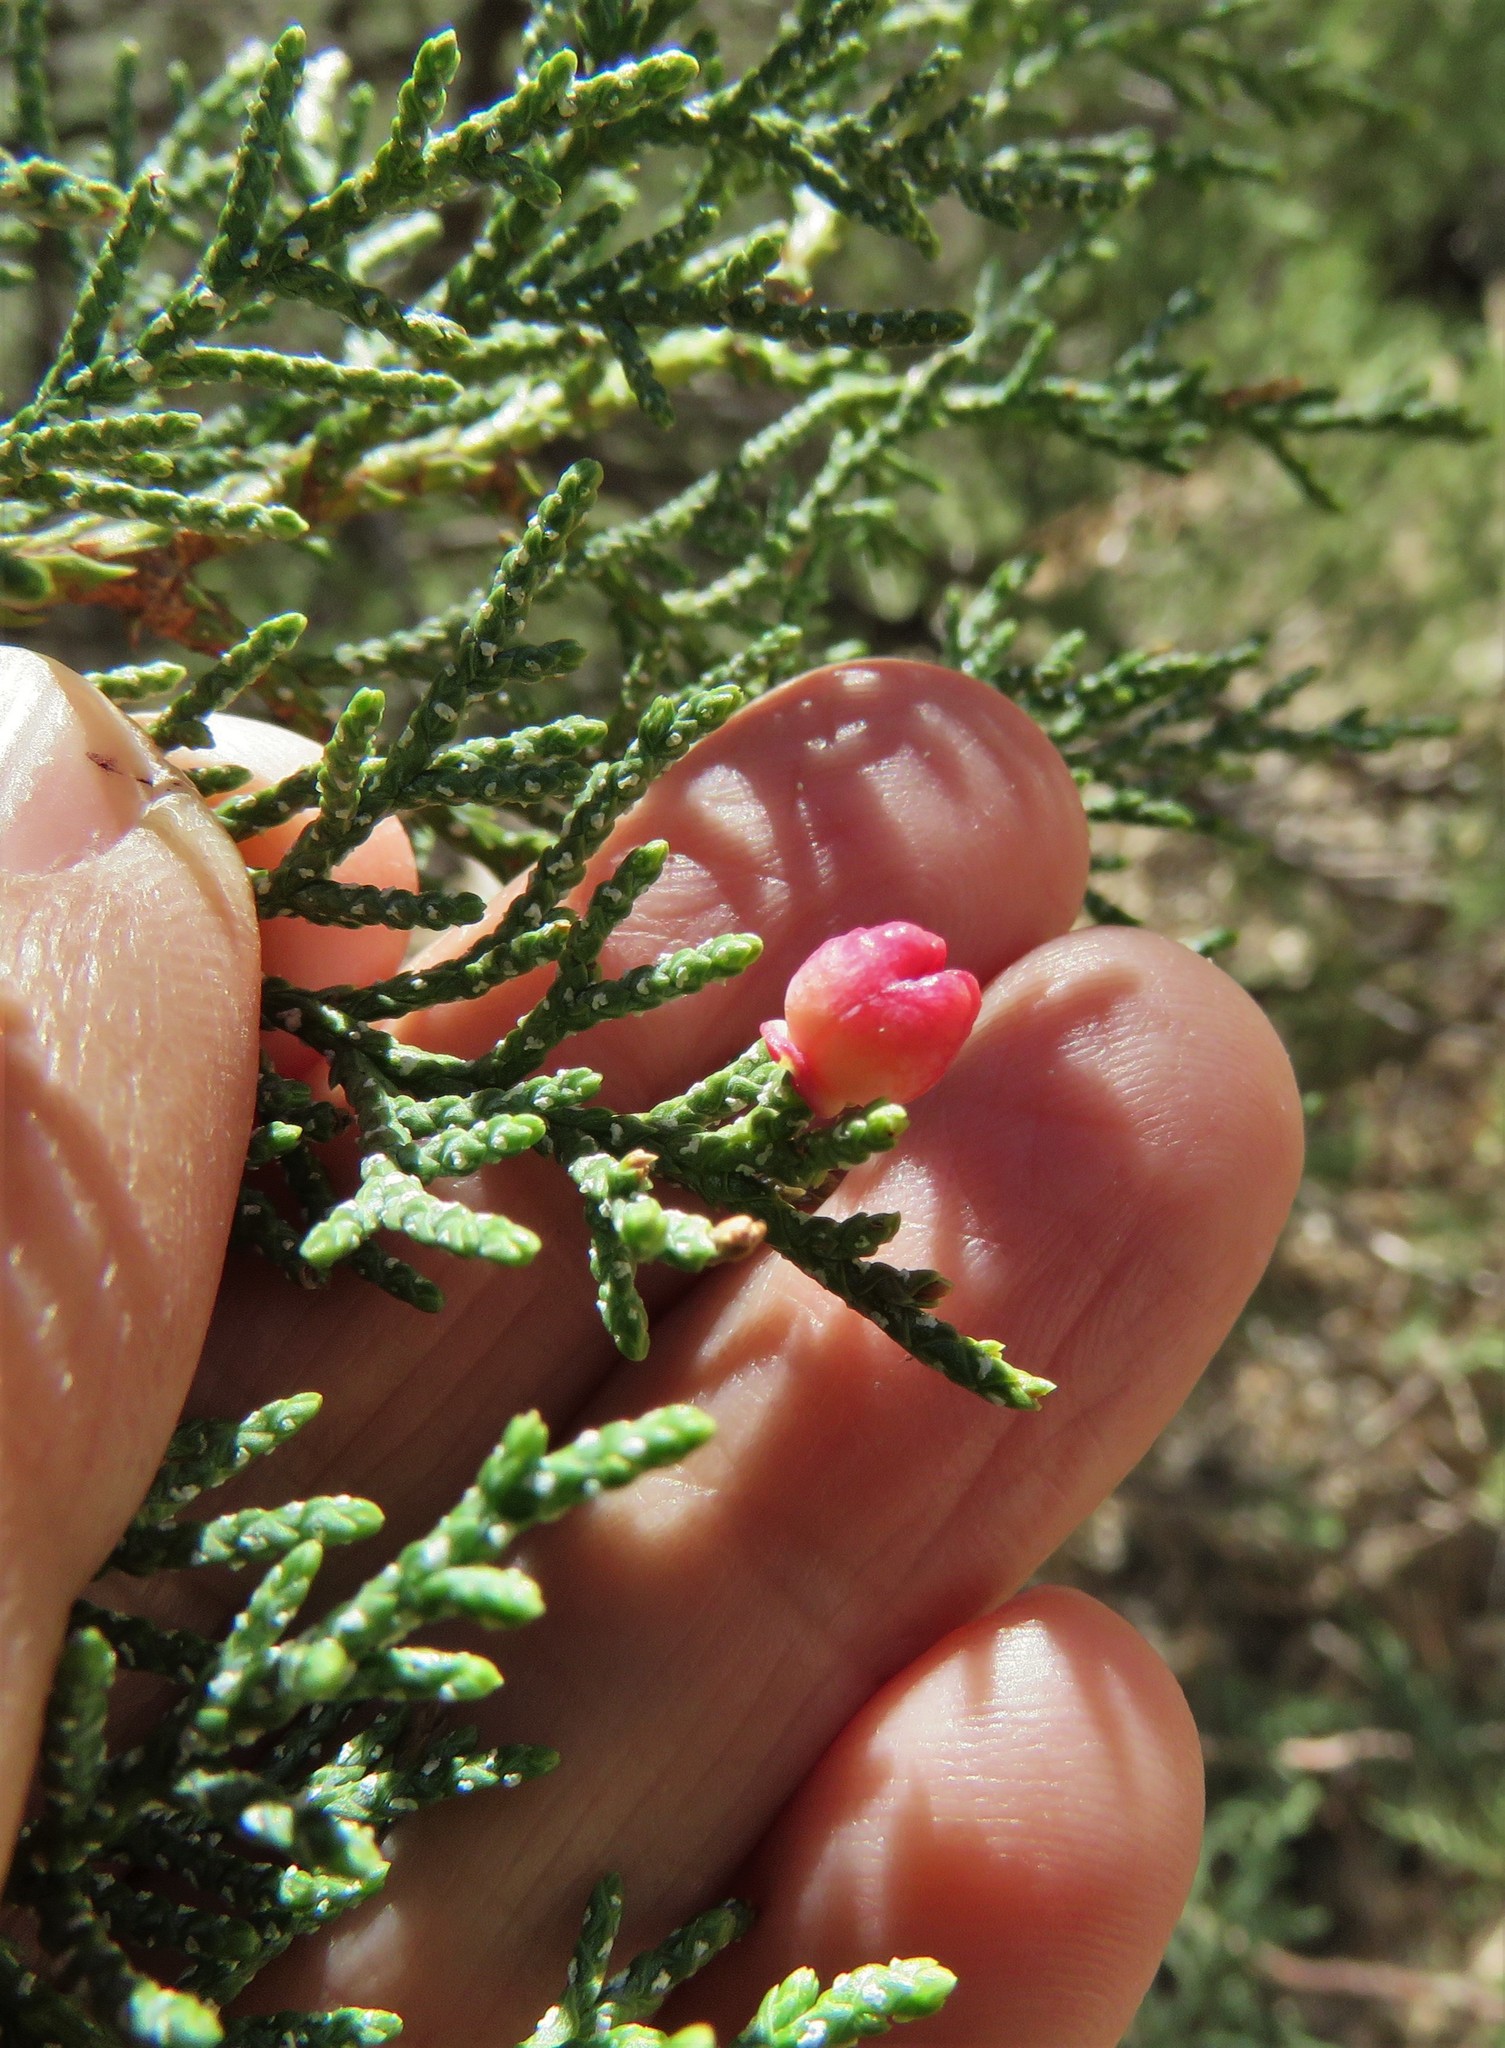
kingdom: Animalia
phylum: Arthropoda
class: Insecta
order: Diptera
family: Cecidomyiidae
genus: Walshomyia
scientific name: Walshomyia juniperina
